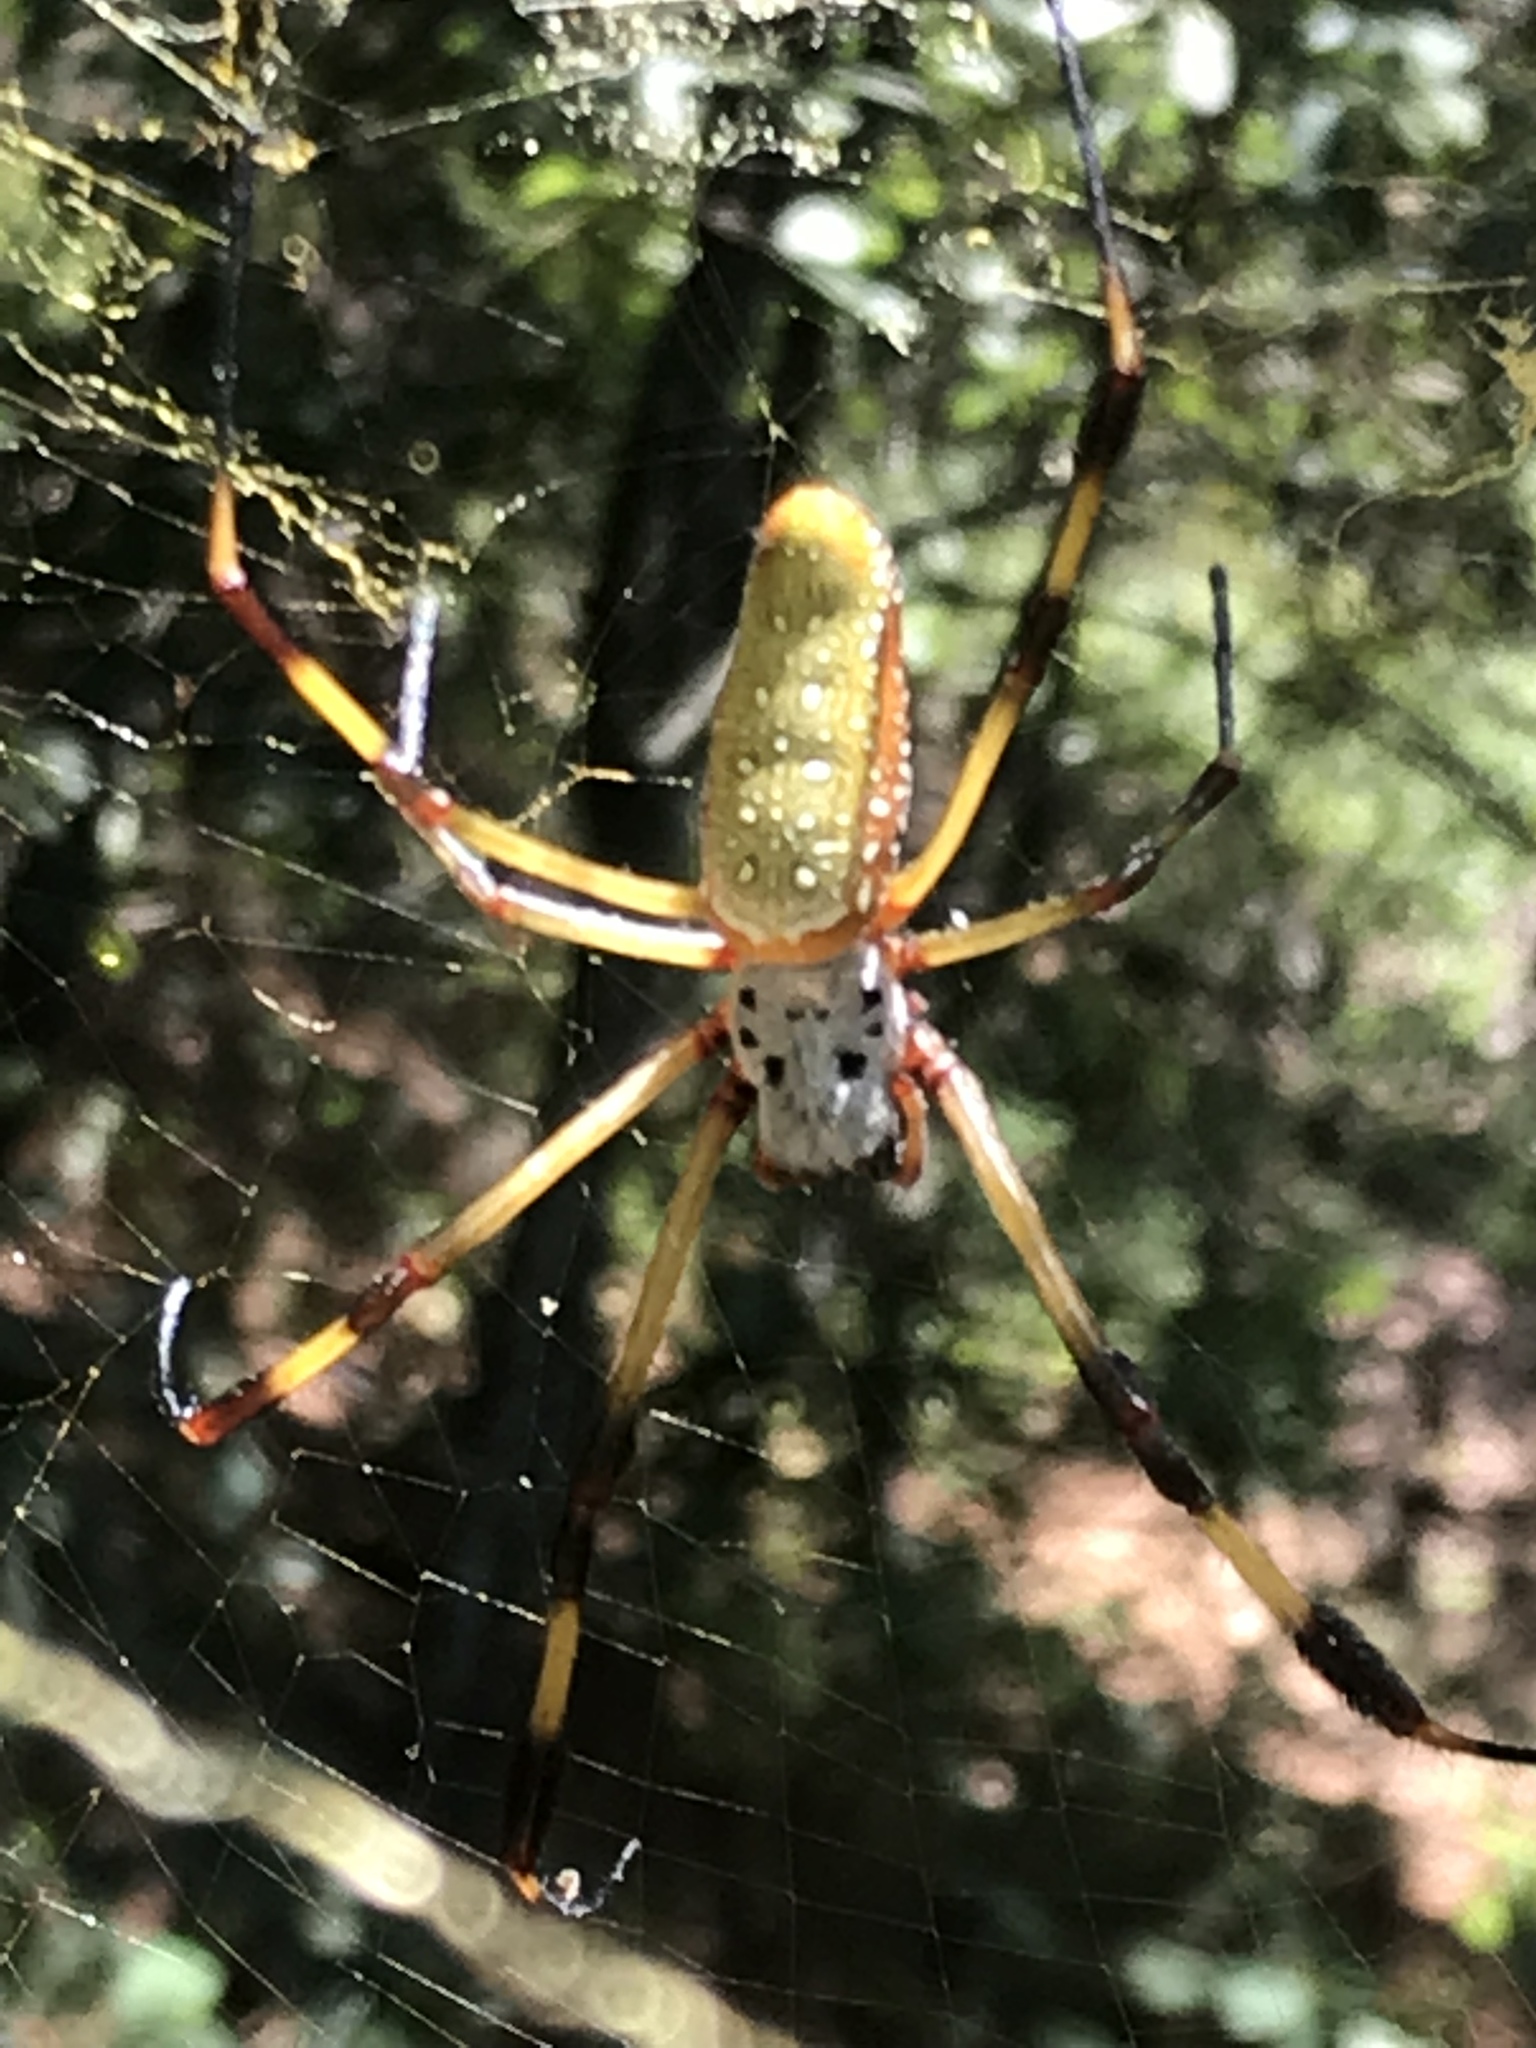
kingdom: Animalia
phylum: Arthropoda
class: Arachnida
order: Araneae
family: Araneidae
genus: Trichonephila
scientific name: Trichonephila clavipes
